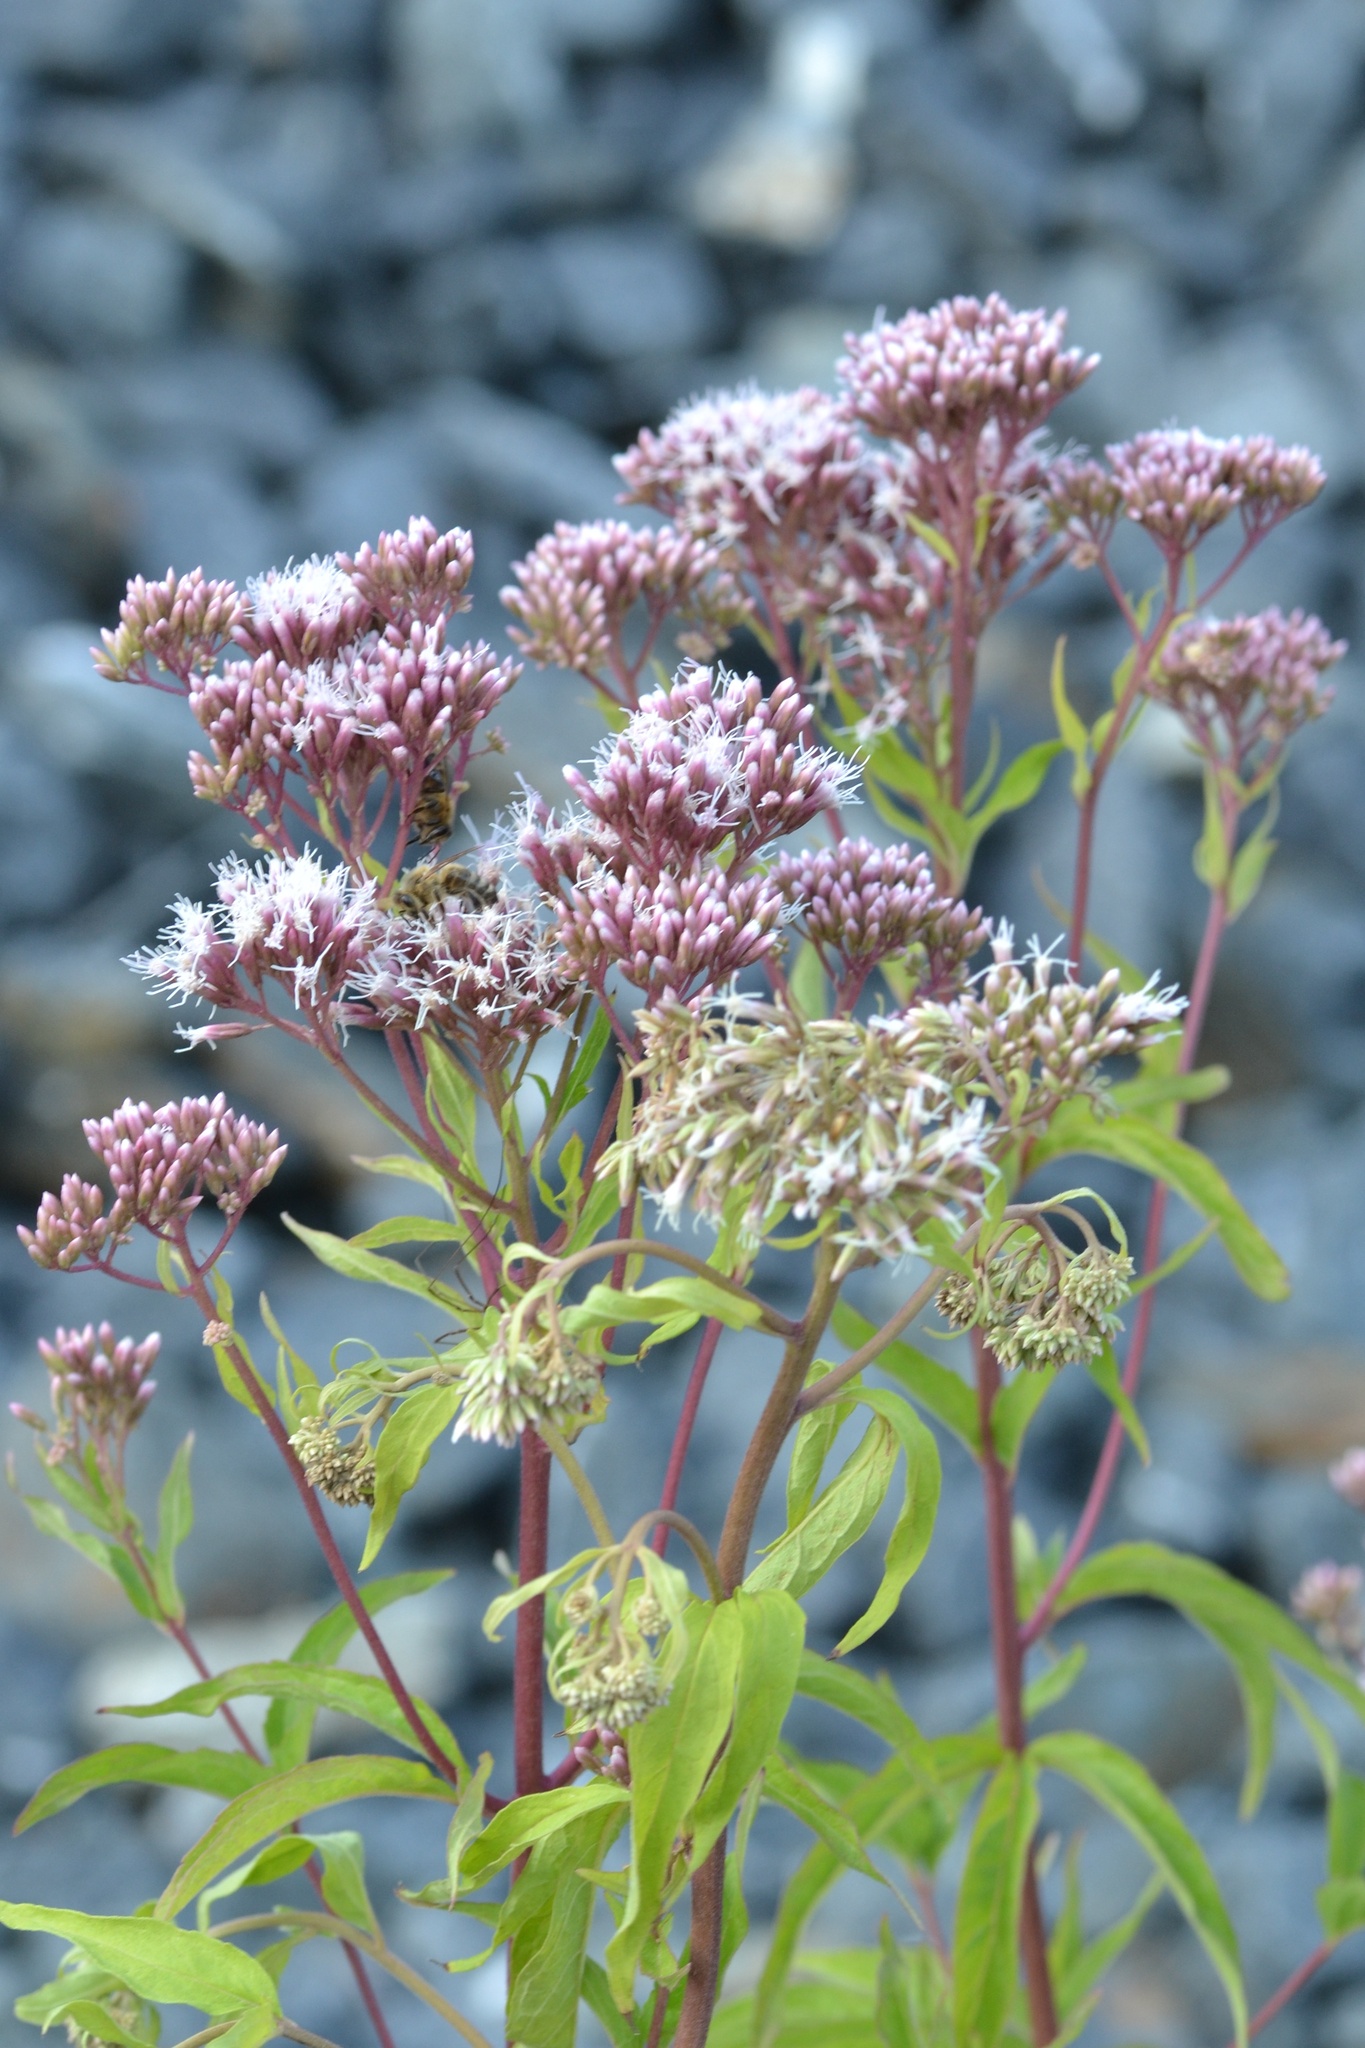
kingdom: Plantae
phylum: Tracheophyta
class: Magnoliopsida
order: Asterales
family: Asteraceae
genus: Eupatorium
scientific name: Eupatorium cannabinum
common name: Hemp-agrimony
